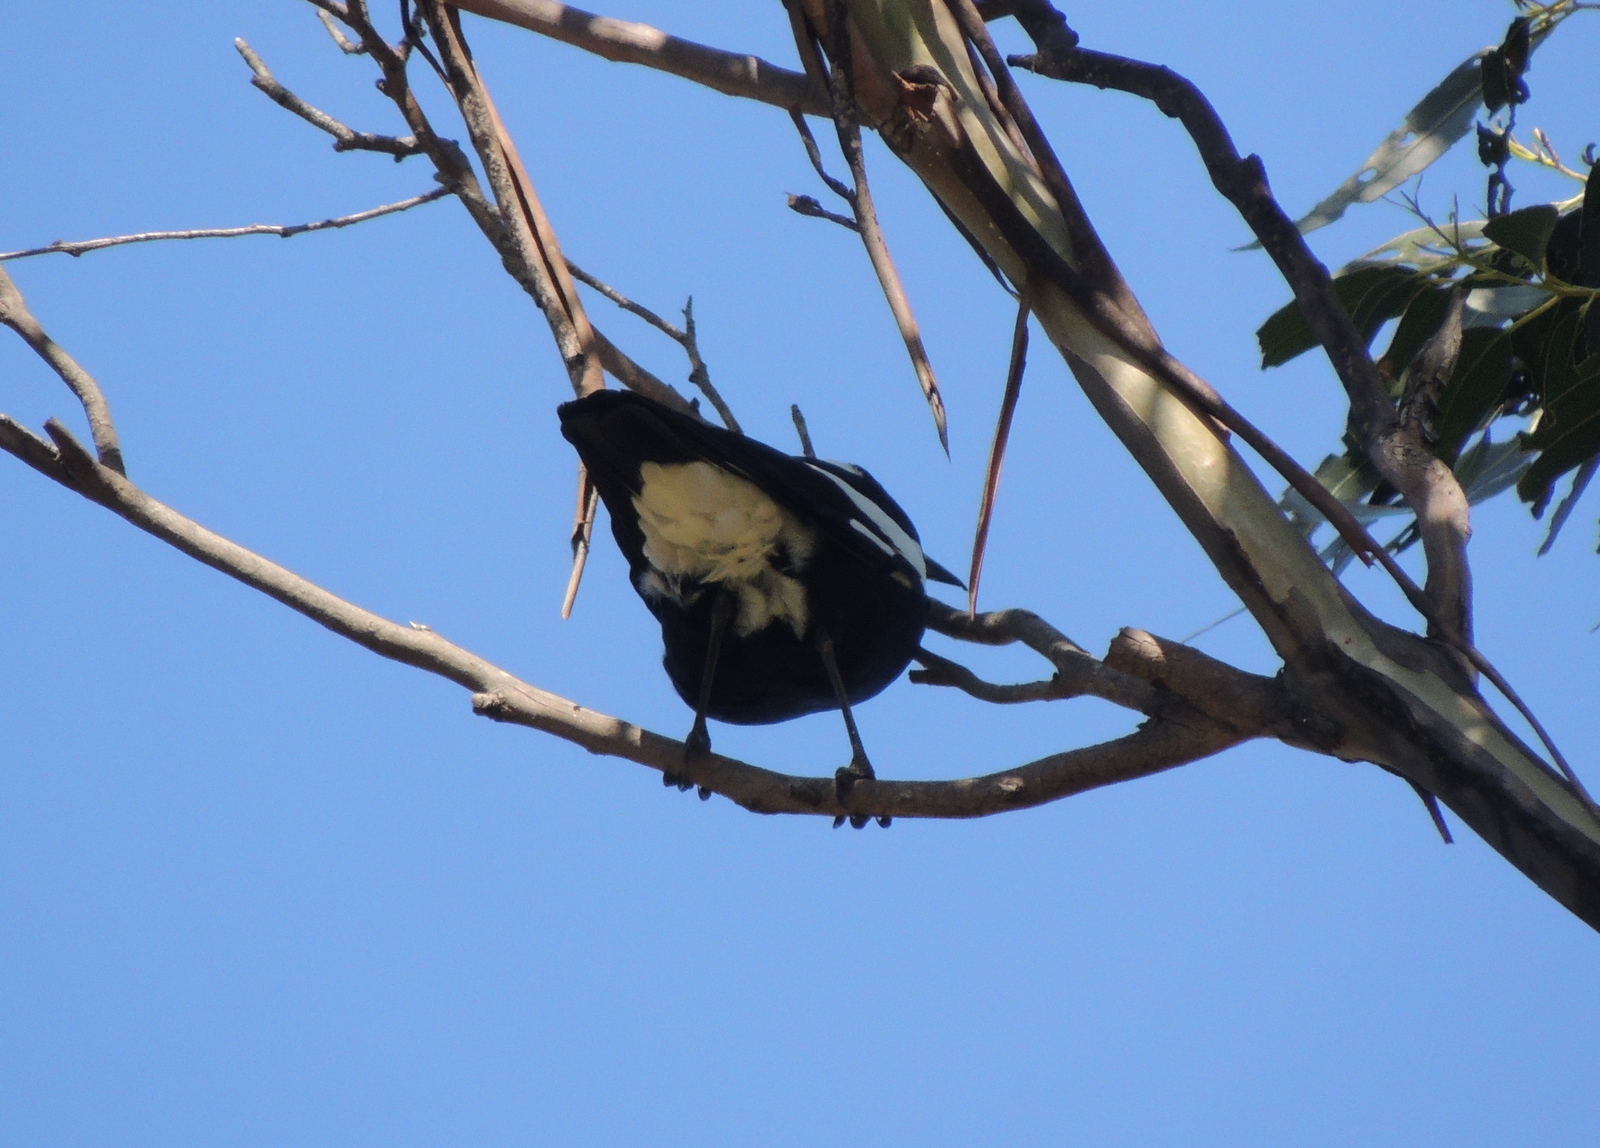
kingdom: Animalia
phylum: Chordata
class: Aves
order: Passeriformes
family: Cracticidae
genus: Gymnorhina
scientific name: Gymnorhina tibicen
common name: Australian magpie
